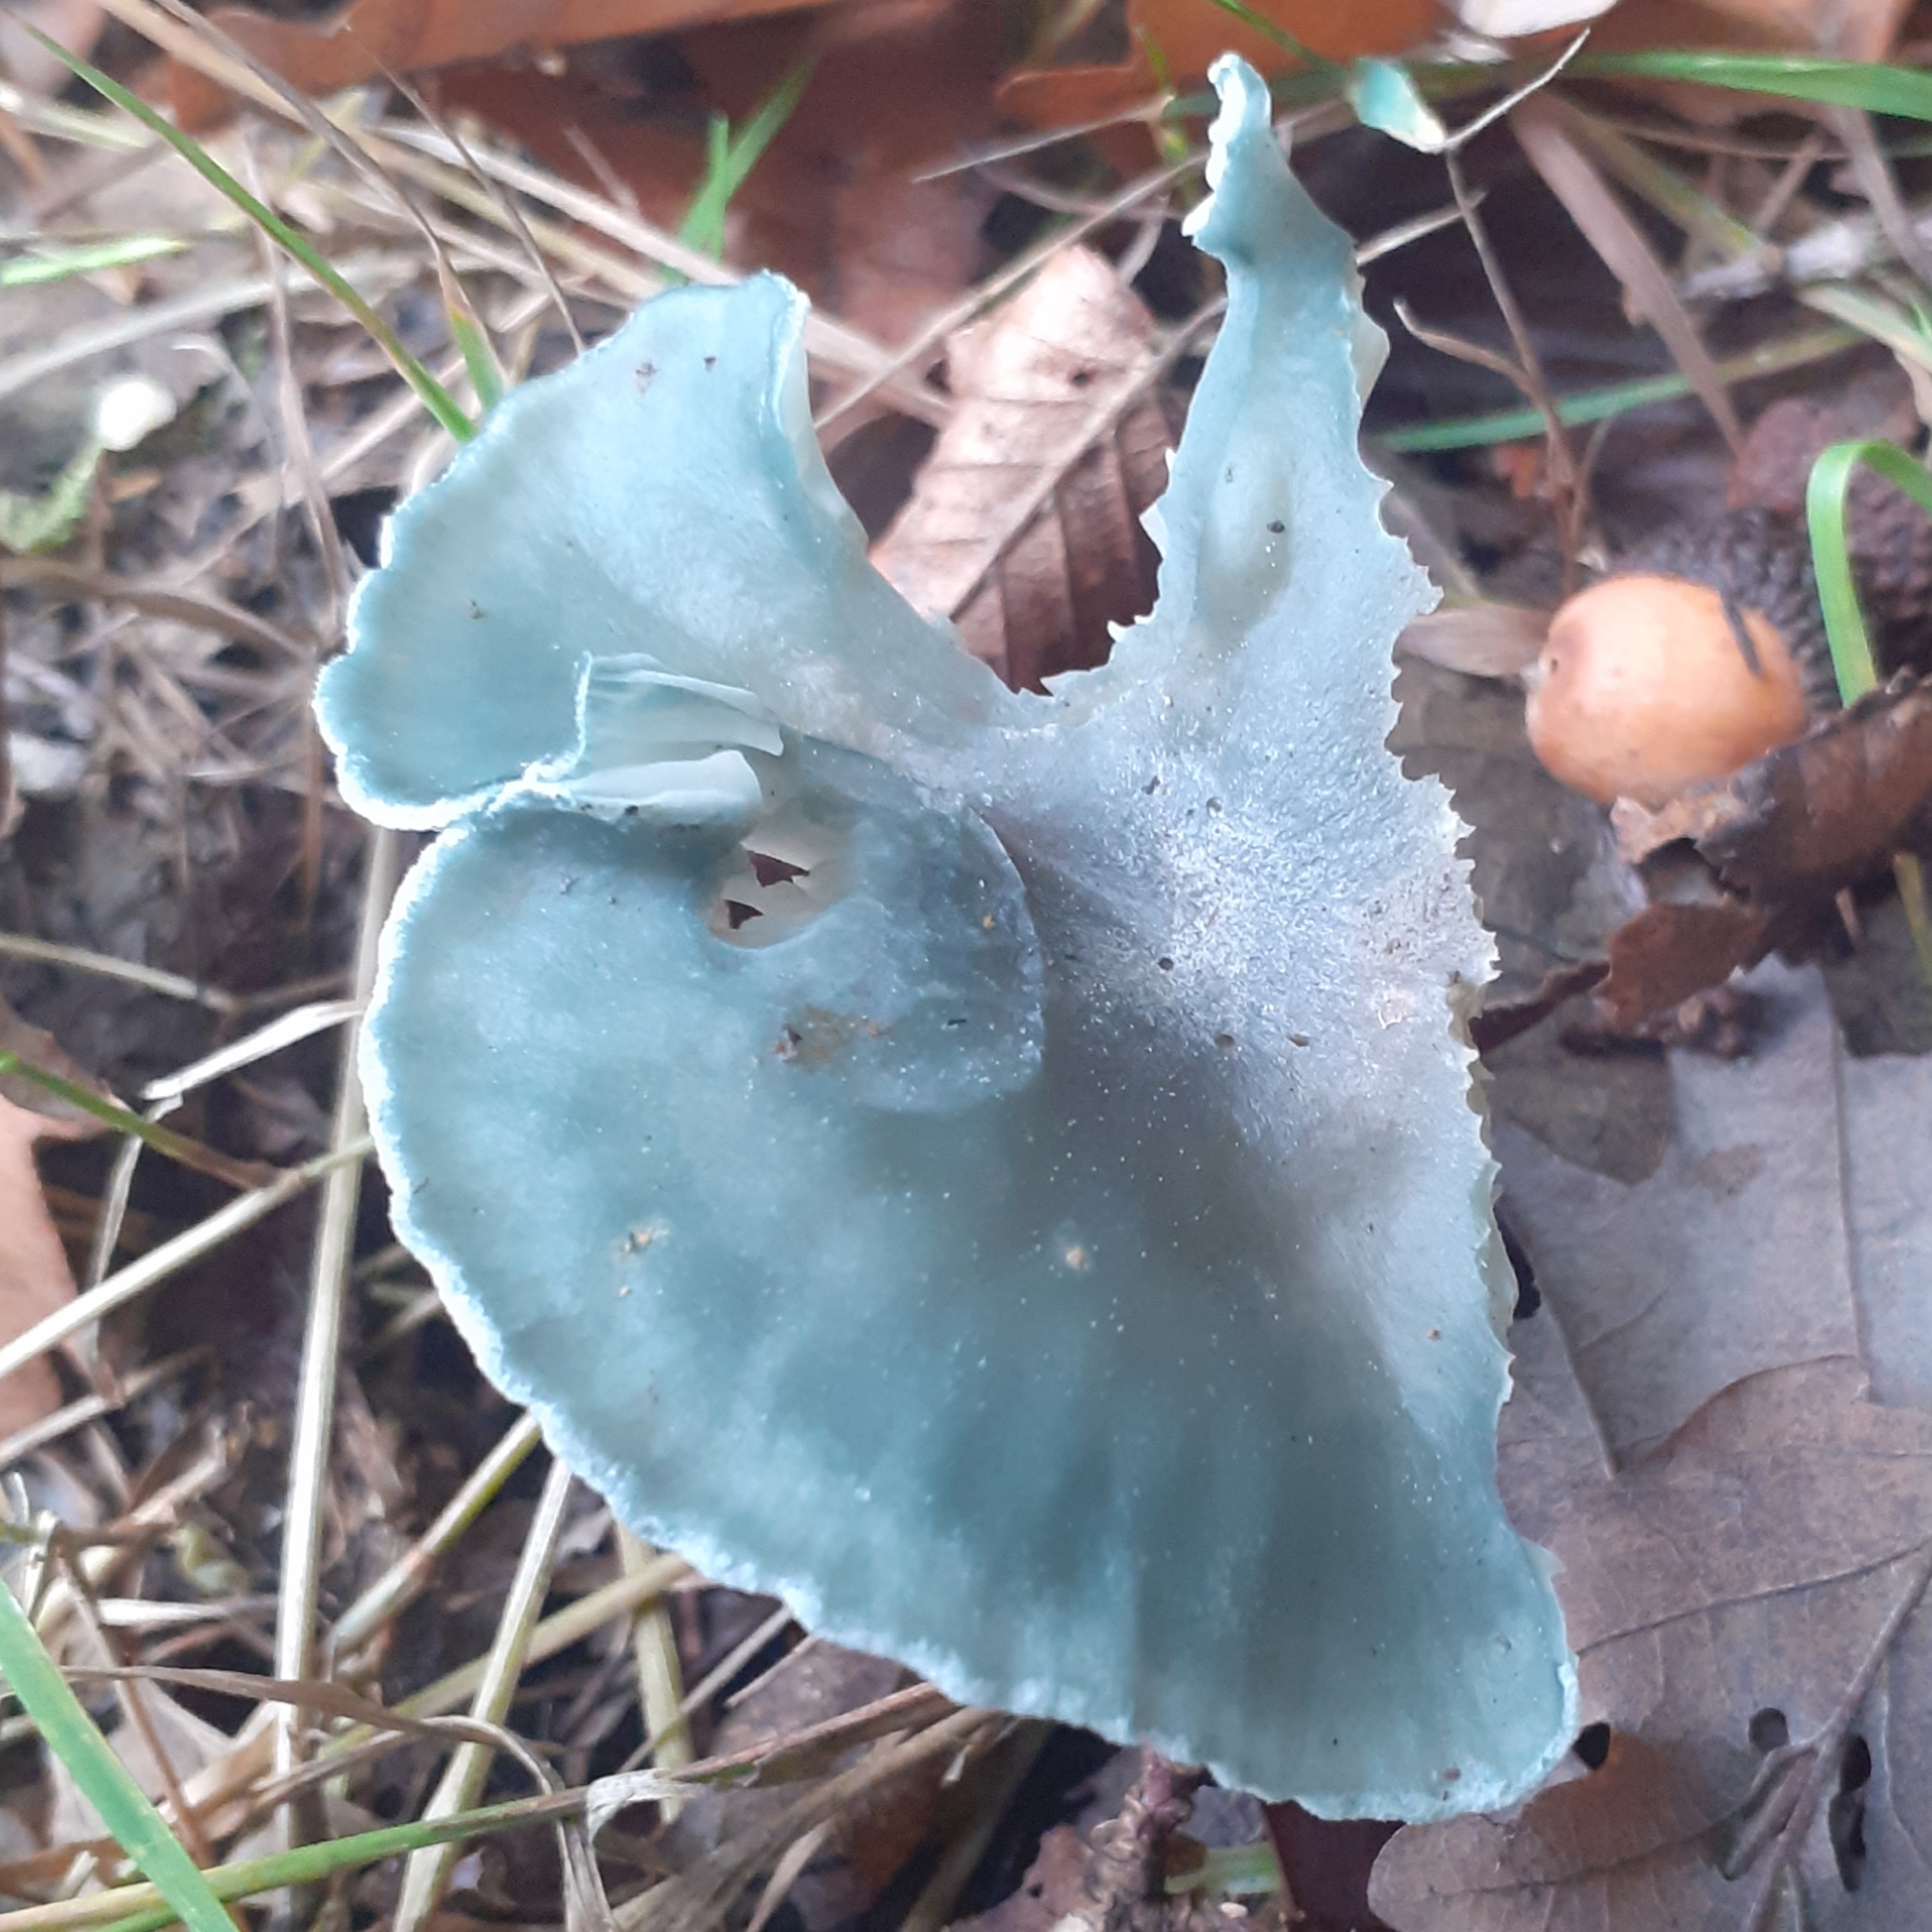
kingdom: Fungi
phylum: Basidiomycota
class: Agaricomycetes
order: Agaricales
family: Tricholomataceae
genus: Collybia
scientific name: Collybia
